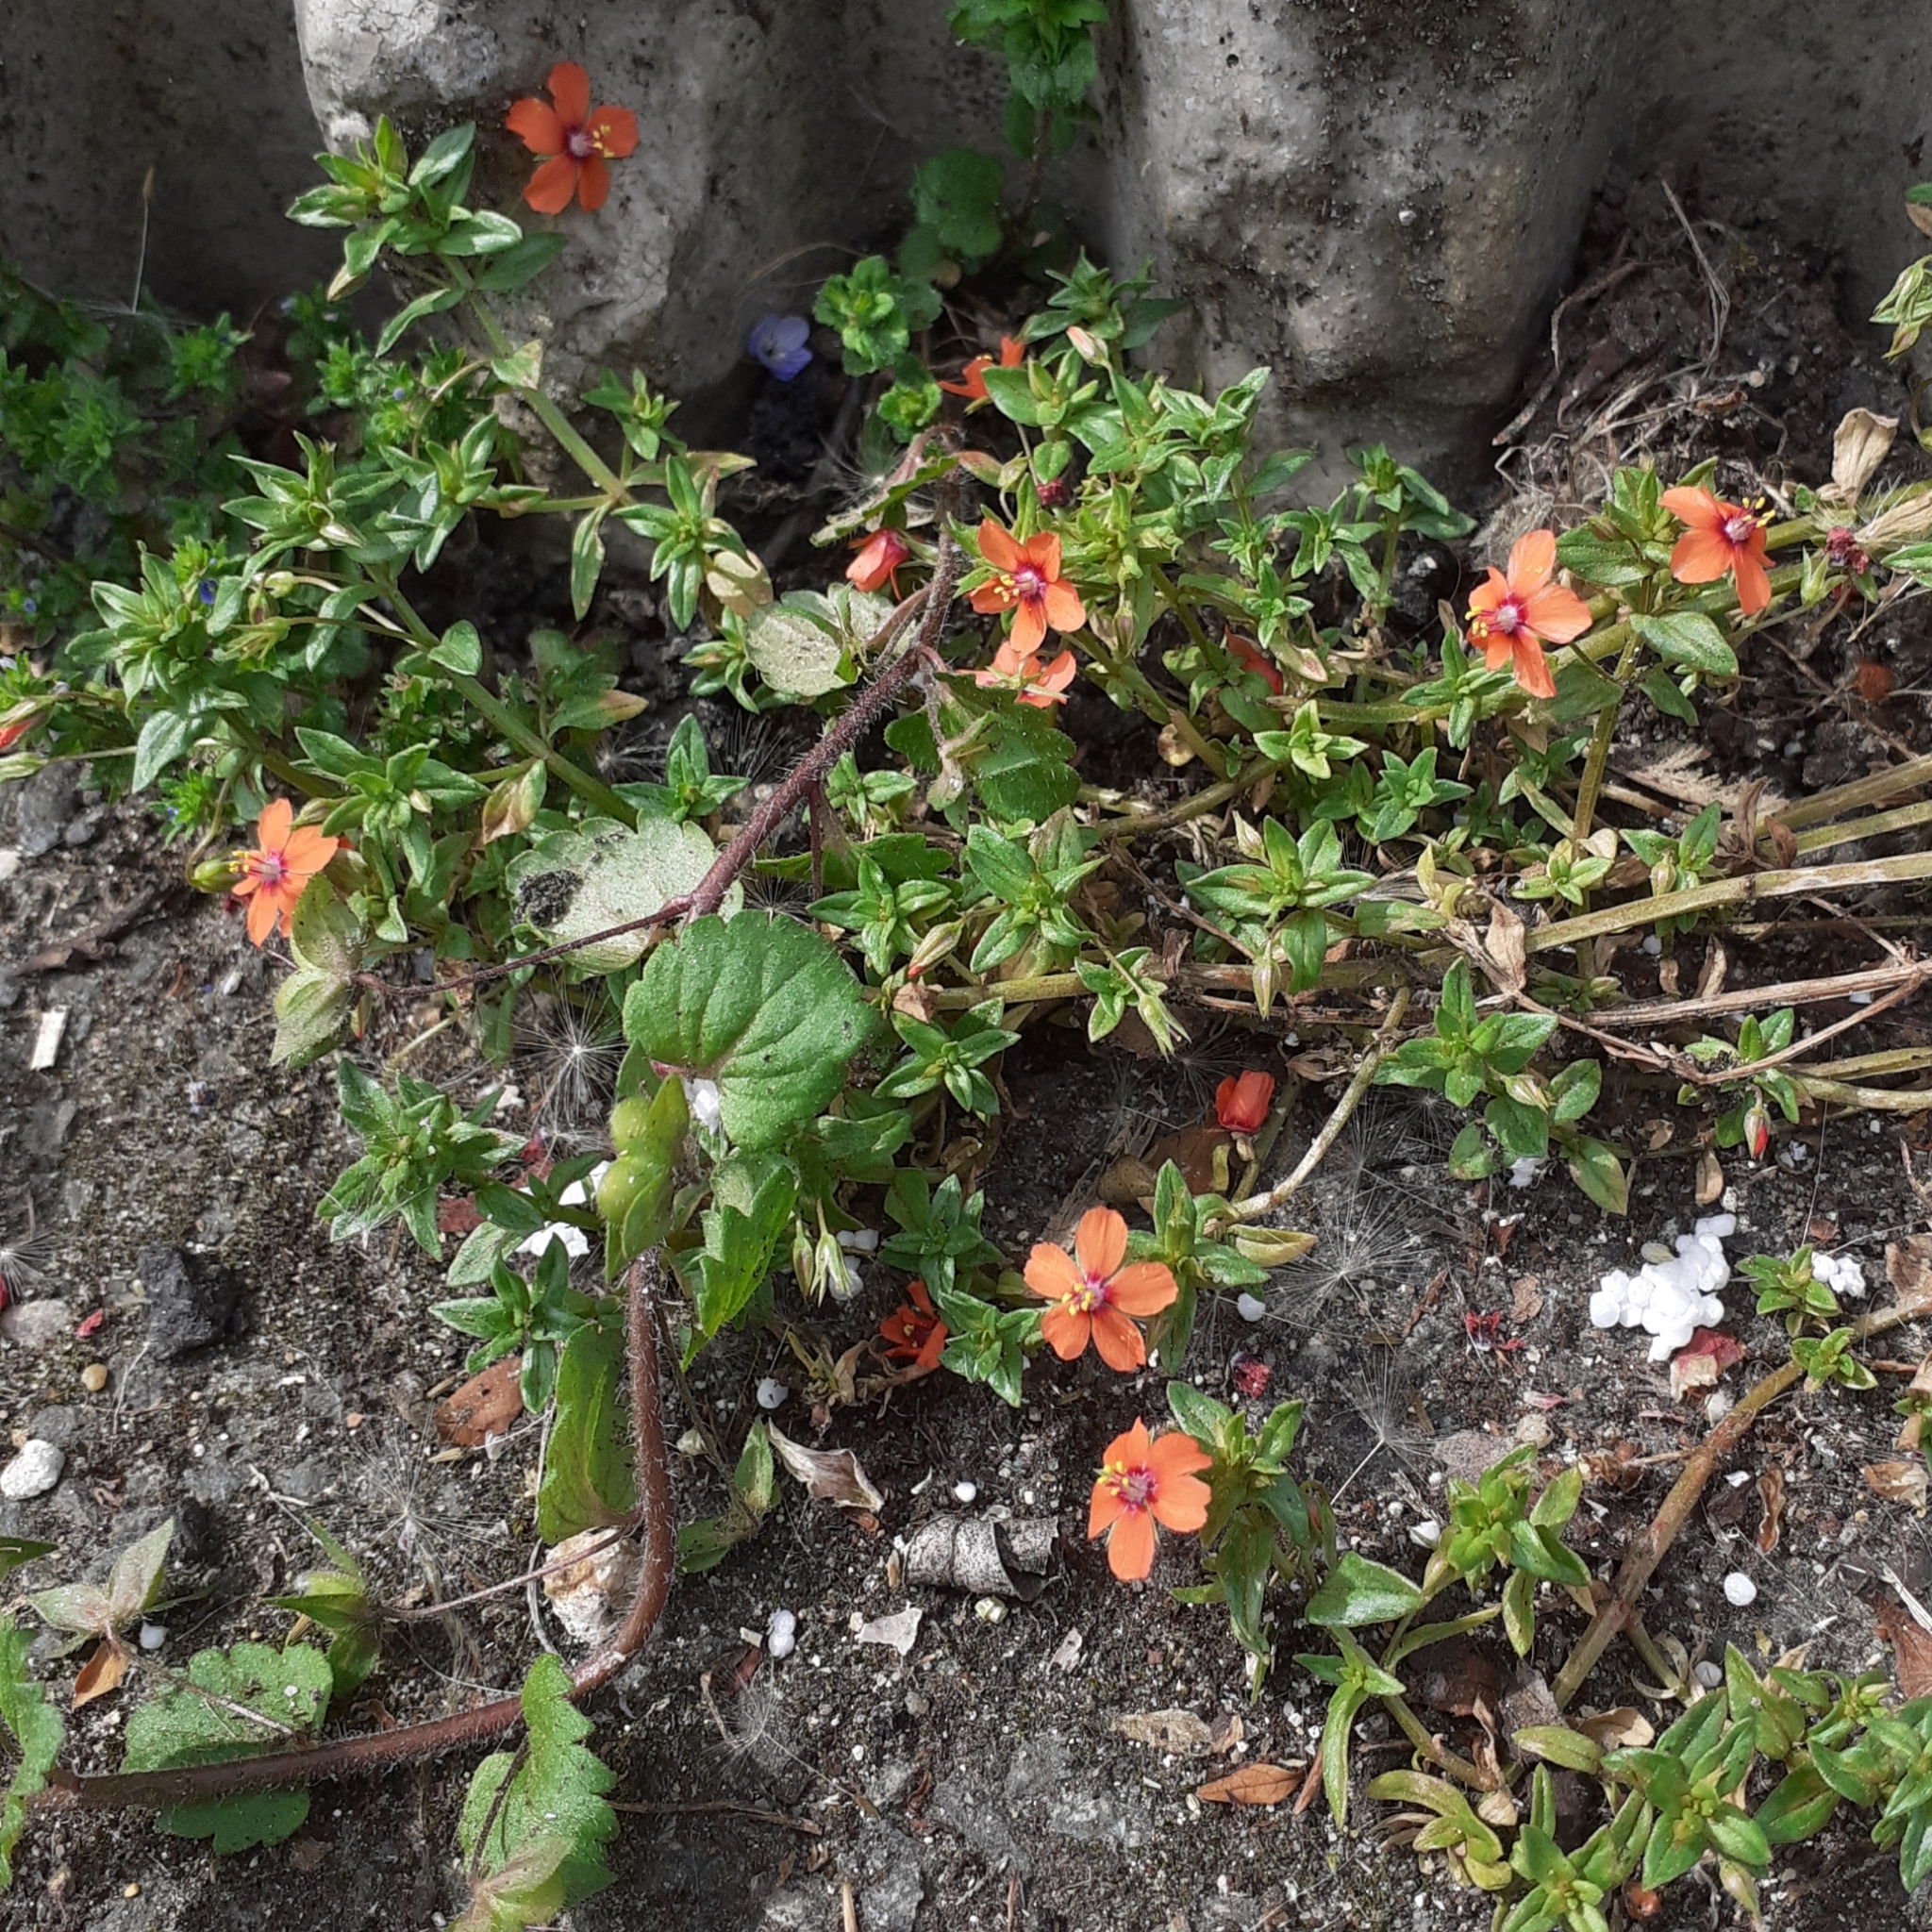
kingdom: Plantae
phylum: Tracheophyta
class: Magnoliopsida
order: Ericales
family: Primulaceae
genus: Lysimachia
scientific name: Lysimachia arvensis
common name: Scarlet pimpernel
